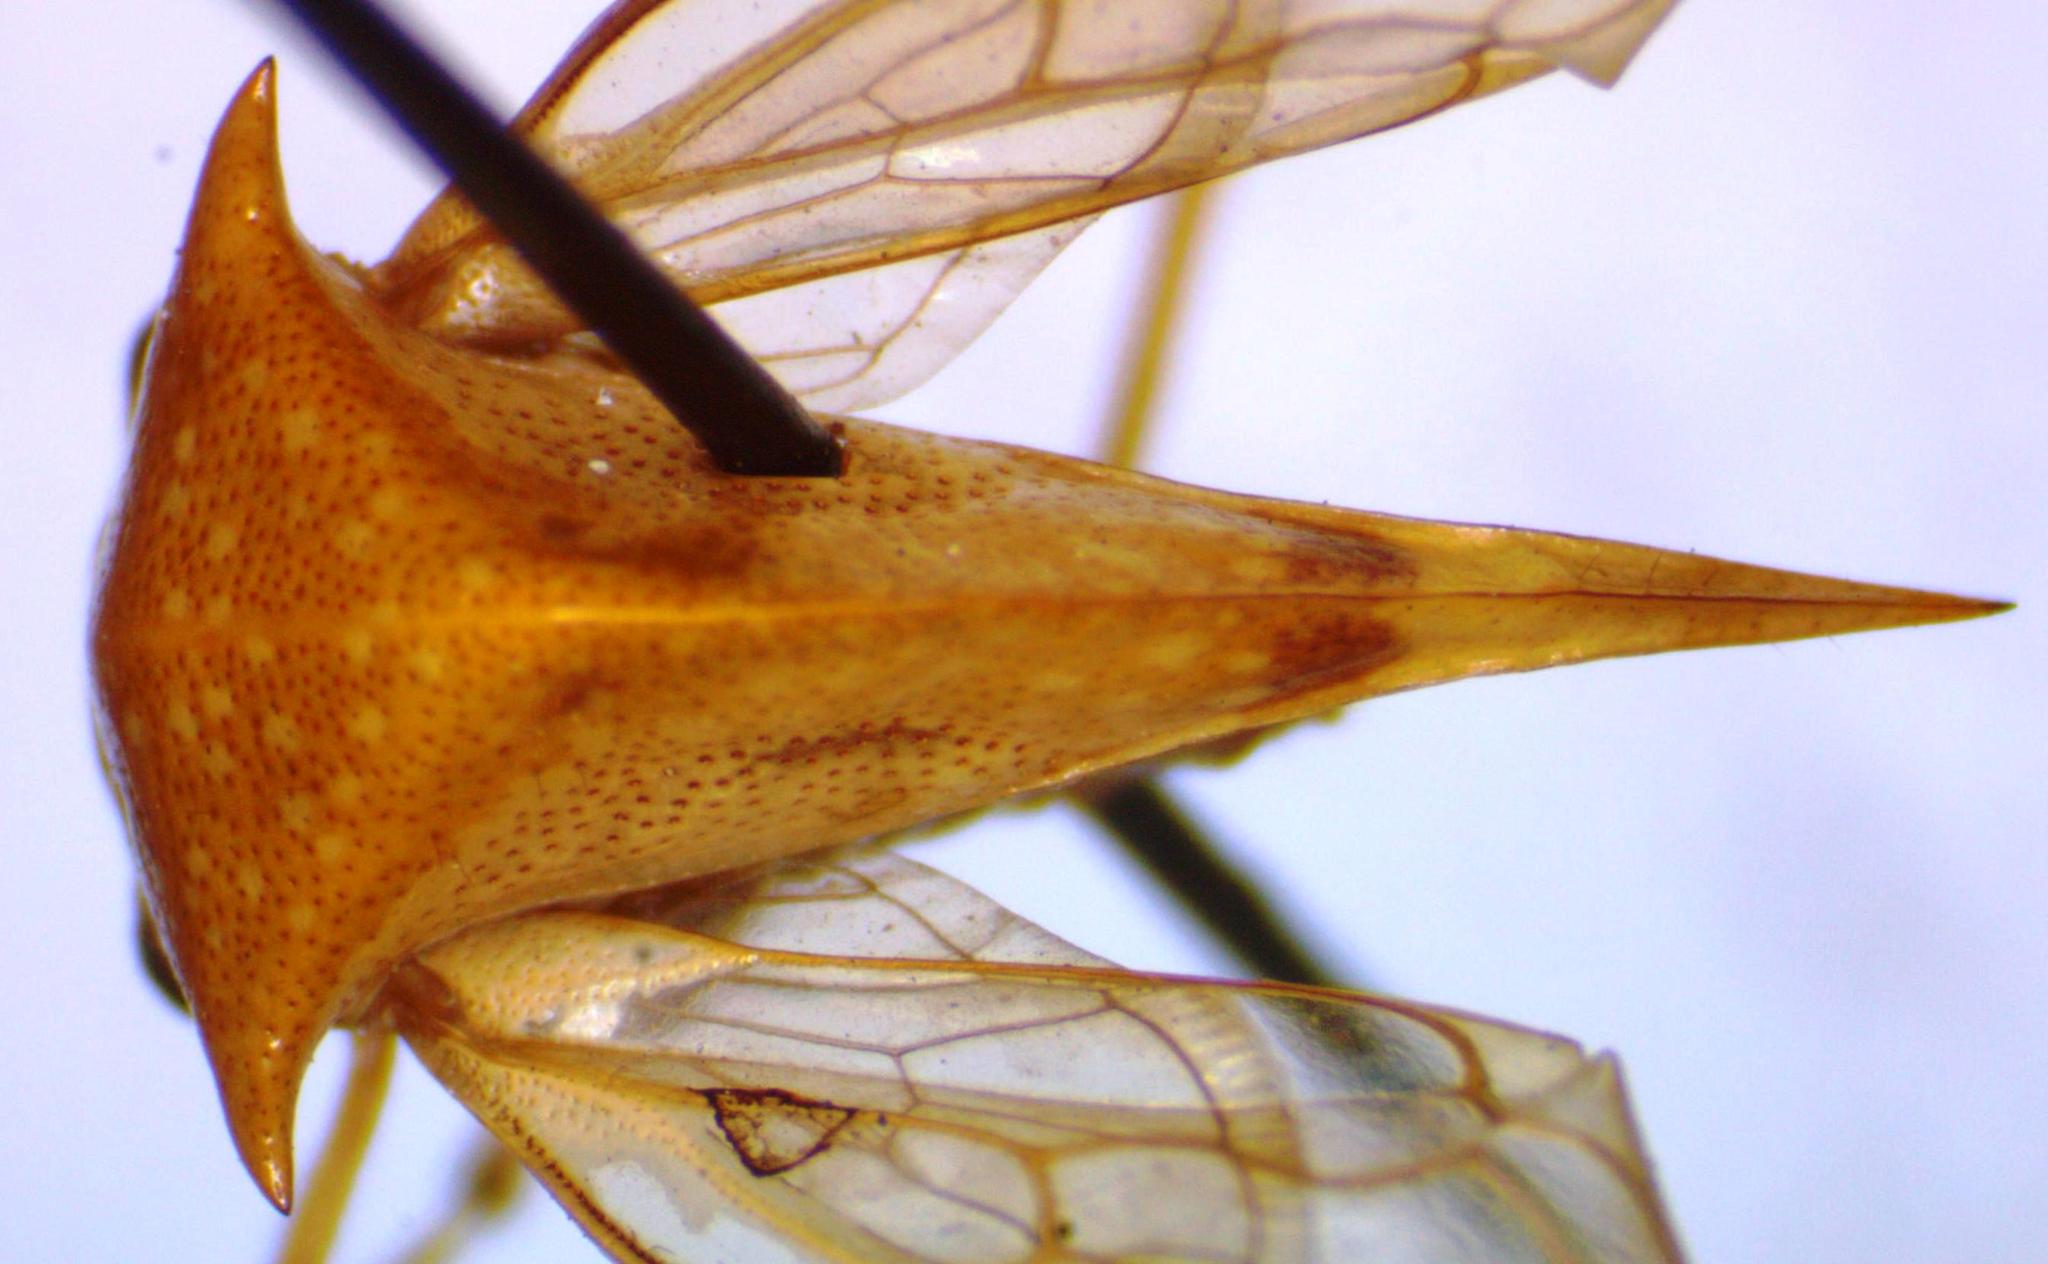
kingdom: Animalia
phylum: Arthropoda
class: Insecta
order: Hemiptera
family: Membracidae
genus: Vestistilus
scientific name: Vestistilus nigrovittata
